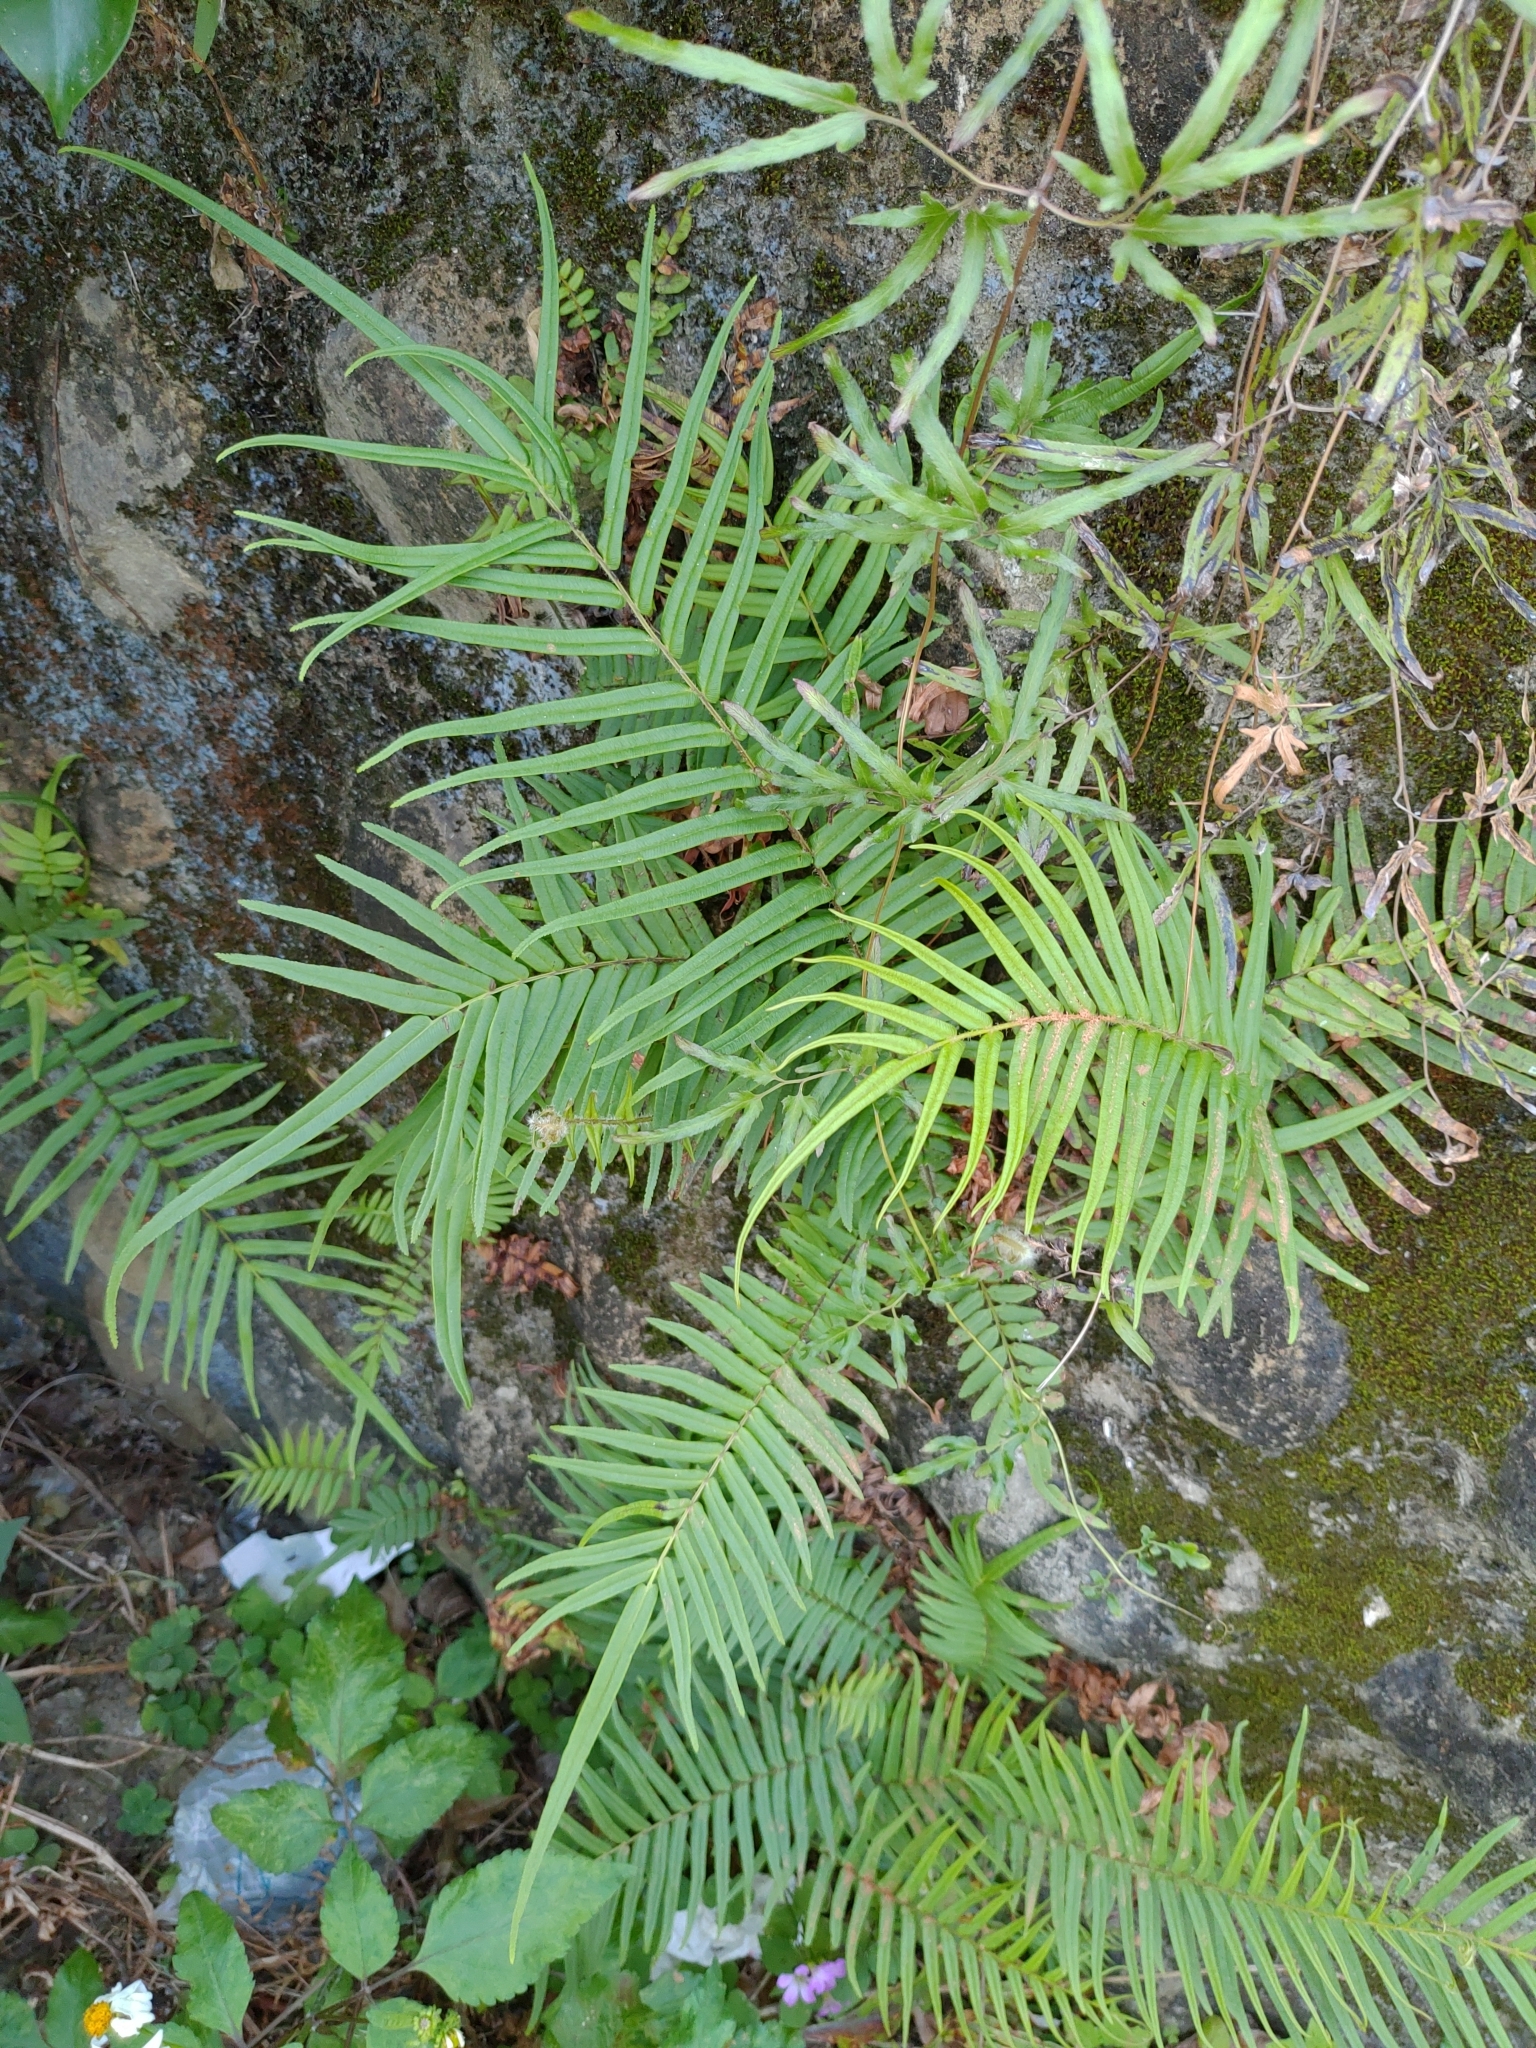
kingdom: Plantae
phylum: Tracheophyta
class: Polypodiopsida
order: Polypodiales
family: Pteridaceae
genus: Pteris
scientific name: Pteris vittata
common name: Ladder brake
